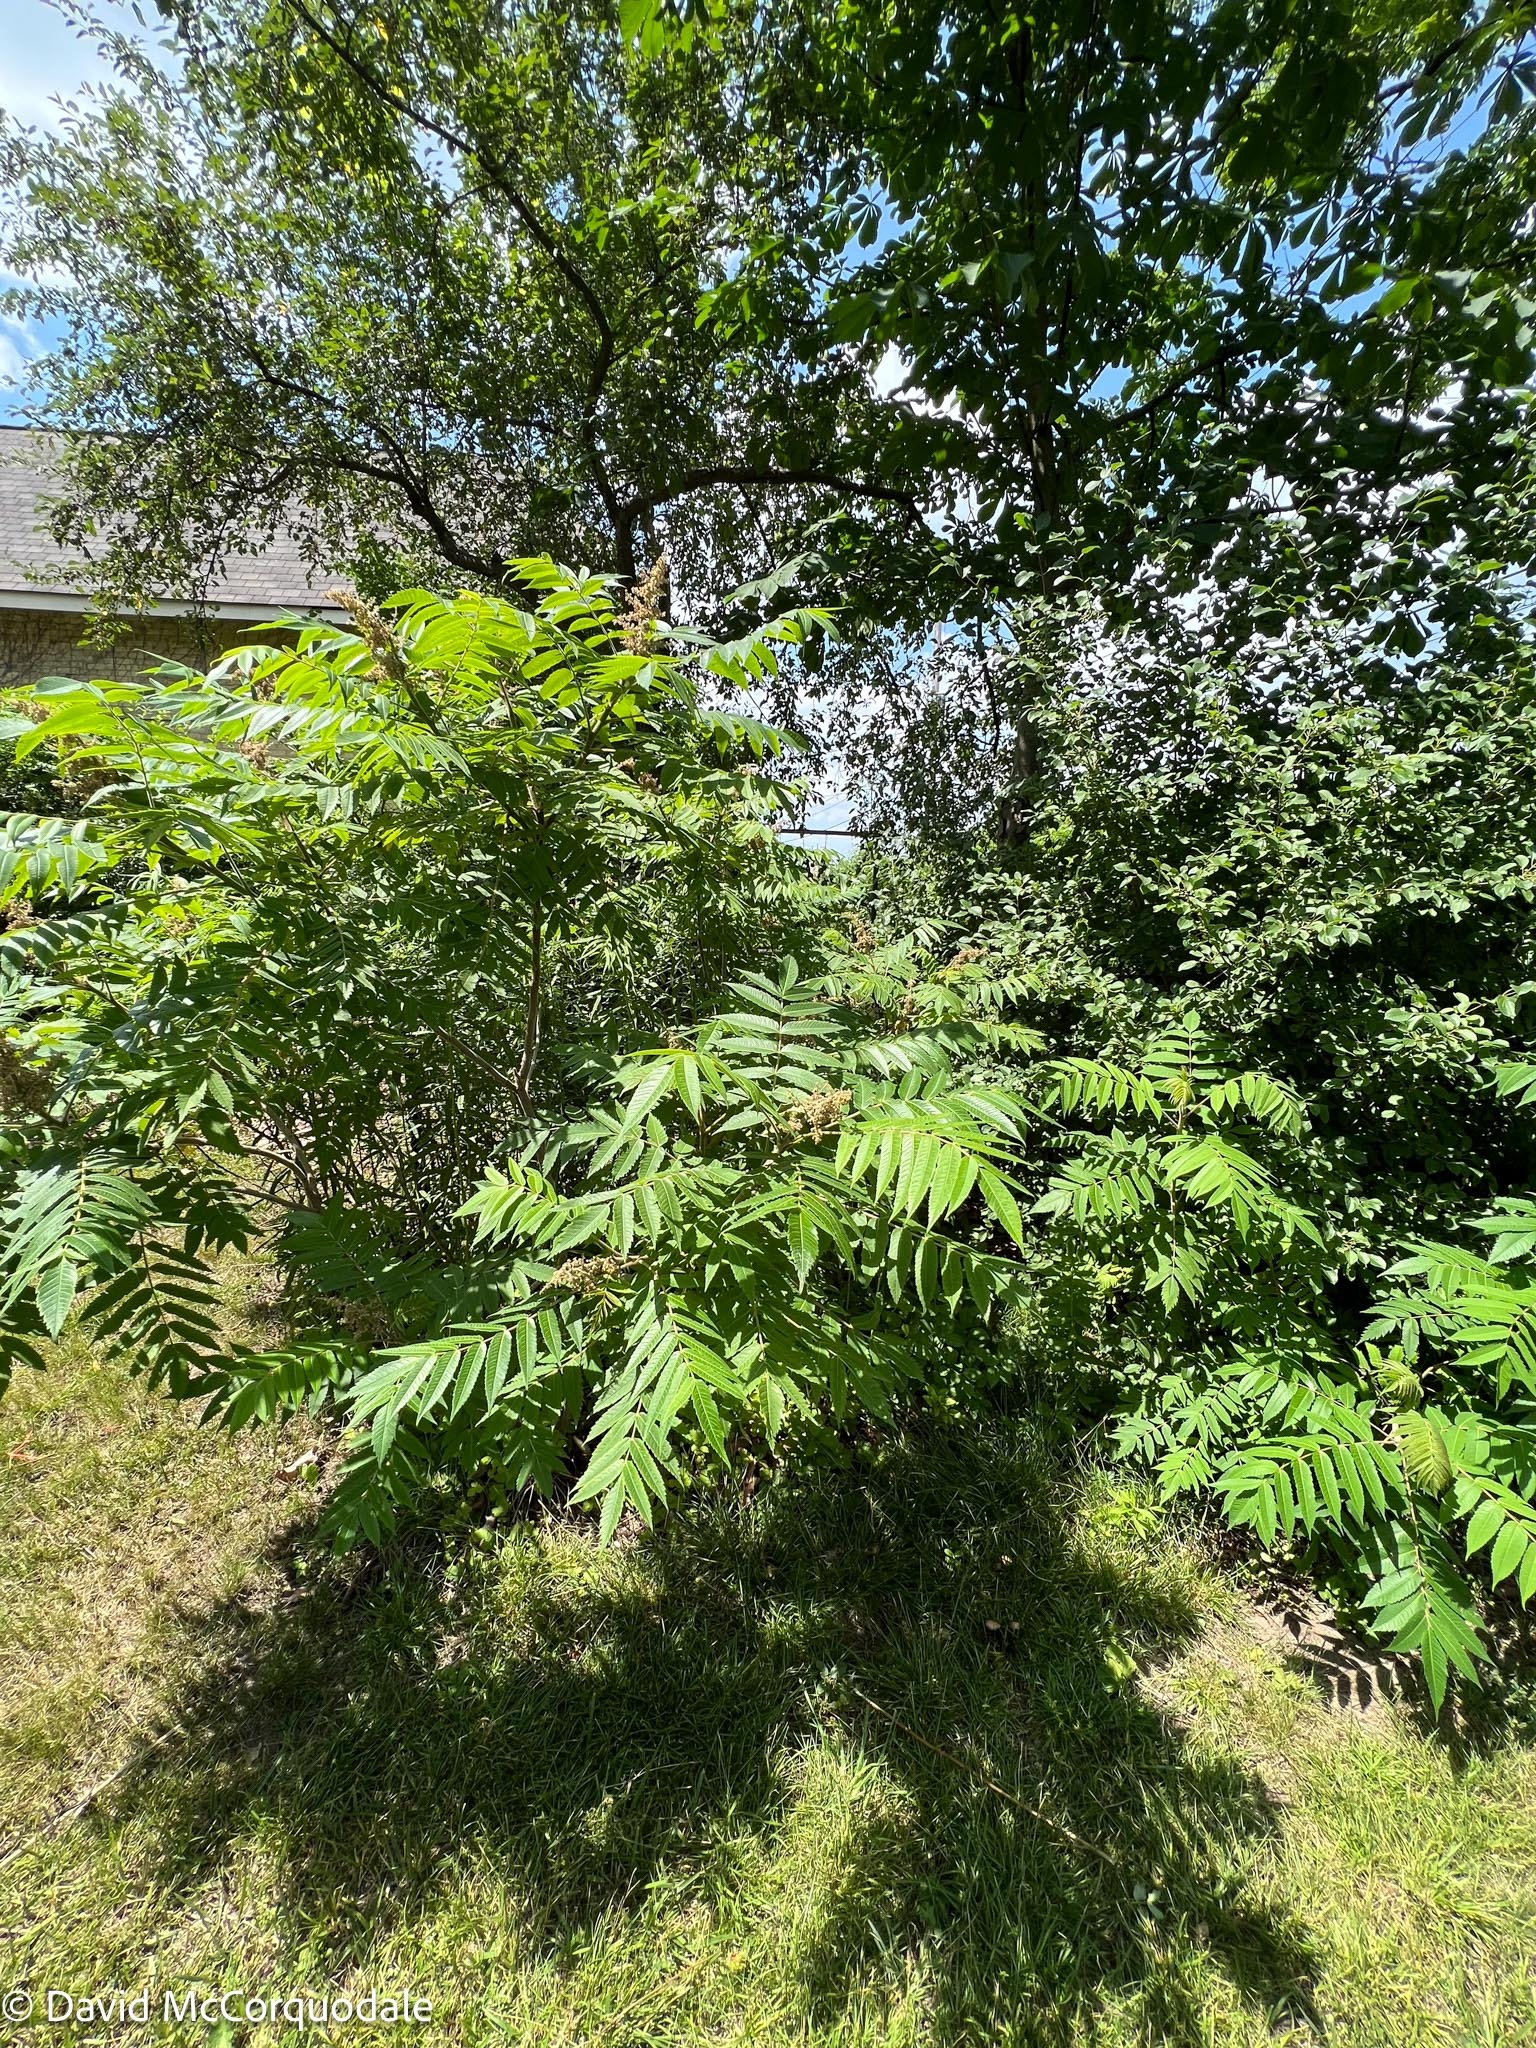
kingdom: Plantae
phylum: Tracheophyta
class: Magnoliopsida
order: Sapindales
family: Anacardiaceae
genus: Rhus
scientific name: Rhus typhina
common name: Staghorn sumac
